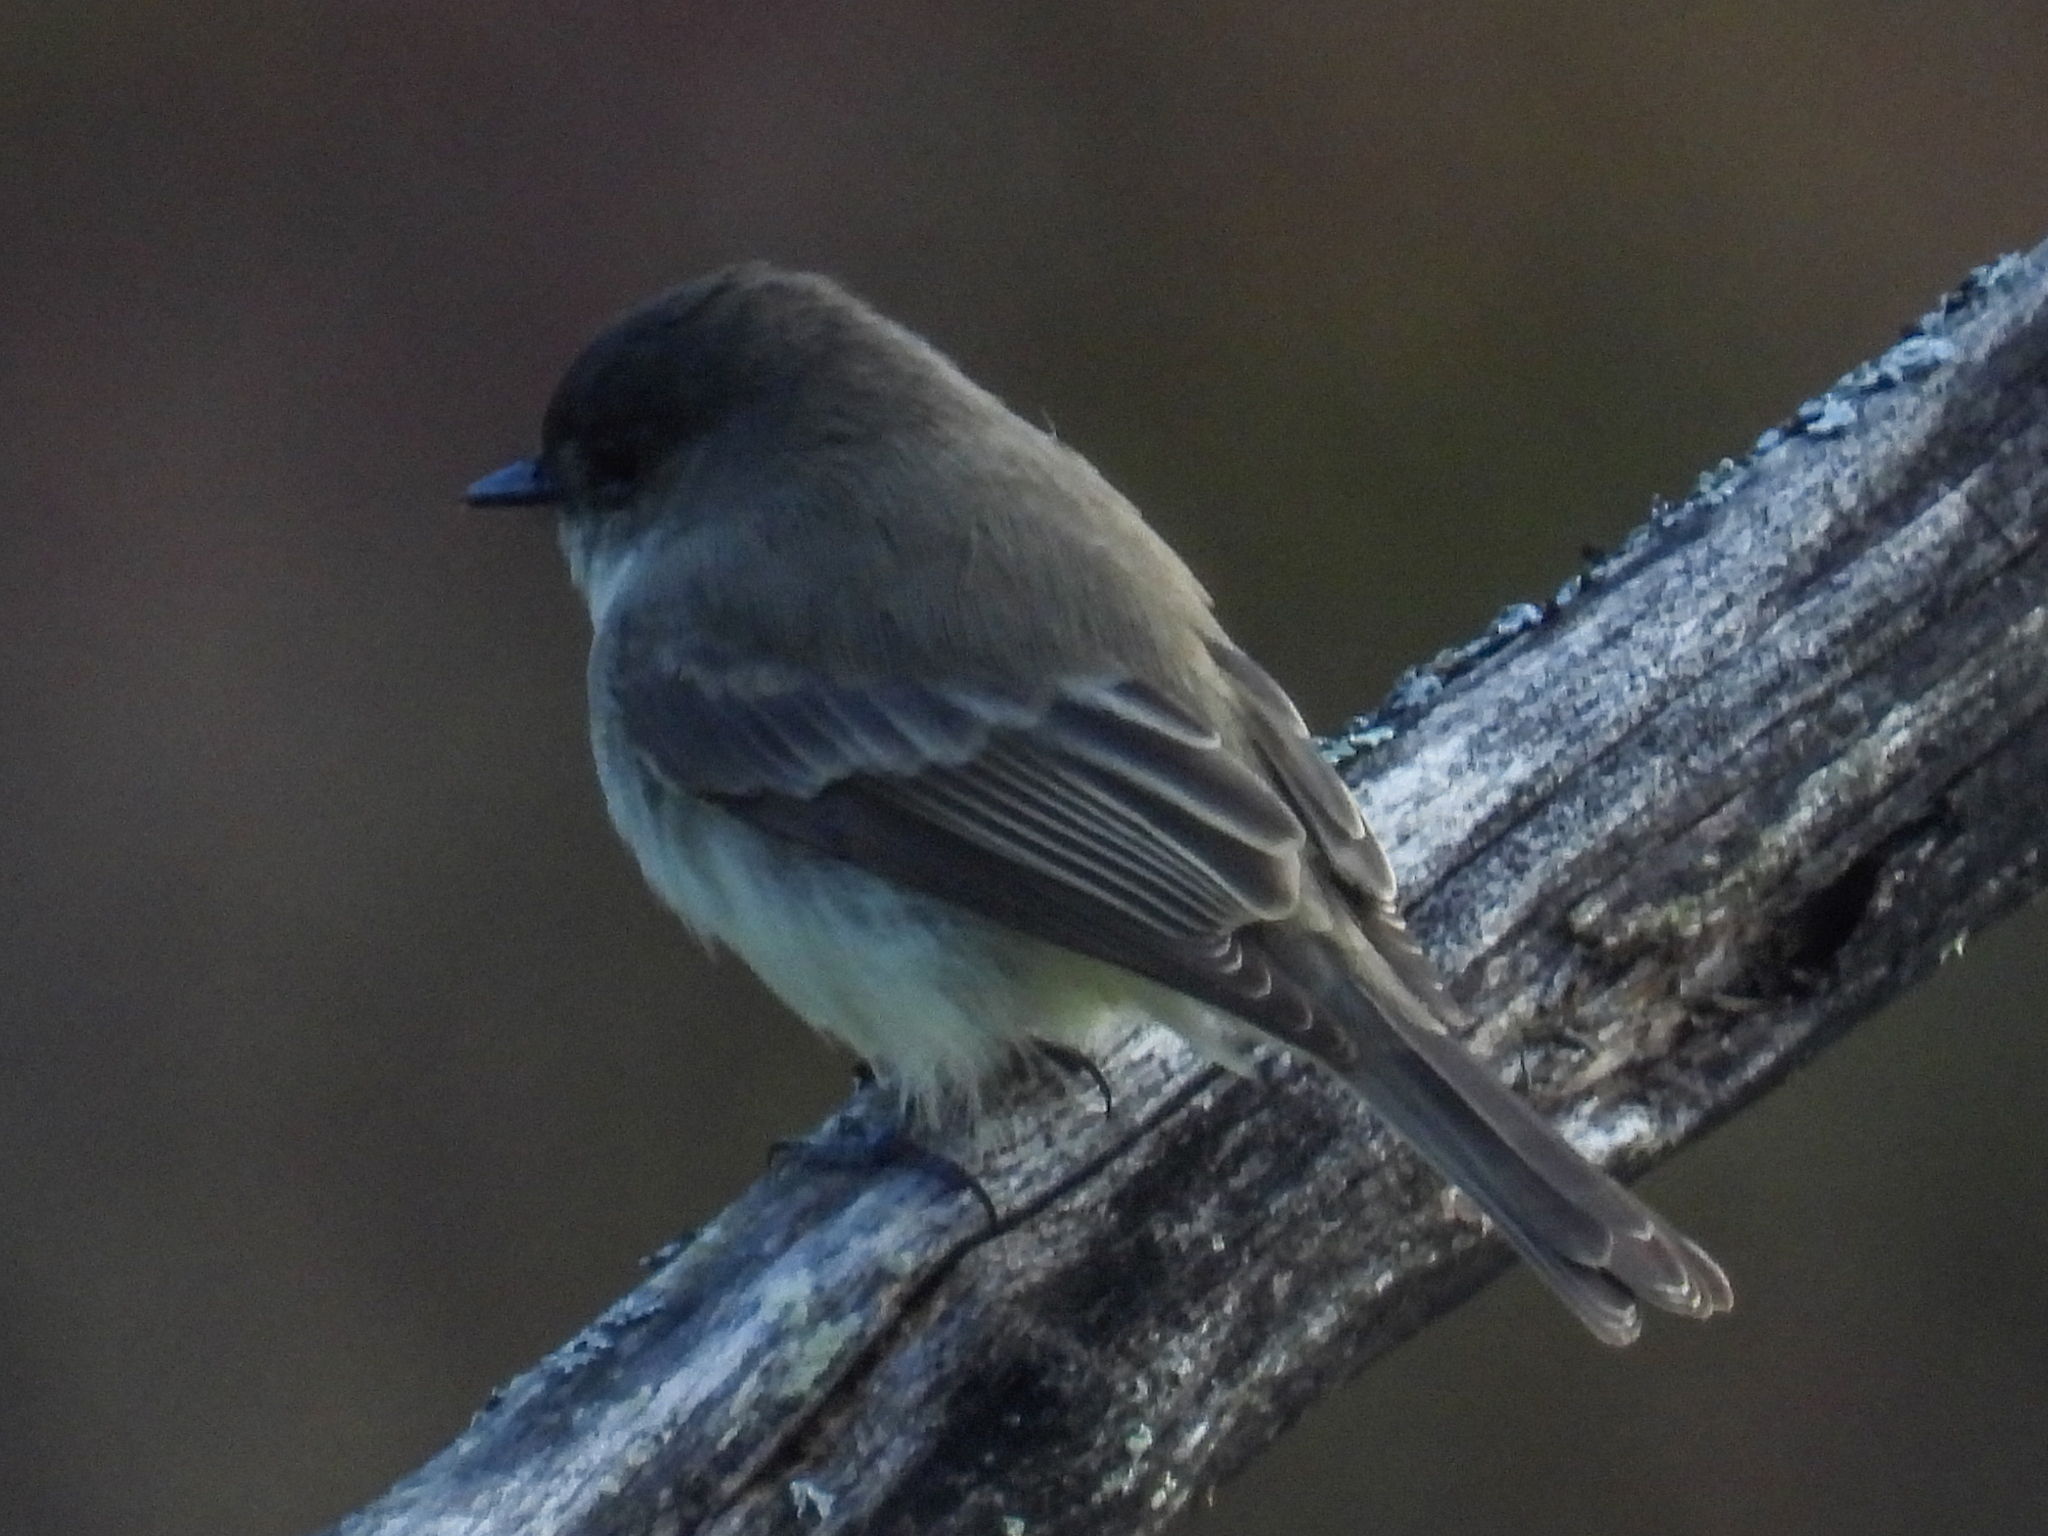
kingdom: Animalia
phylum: Chordata
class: Aves
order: Passeriformes
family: Tyrannidae
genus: Sayornis
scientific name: Sayornis phoebe
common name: Eastern phoebe
